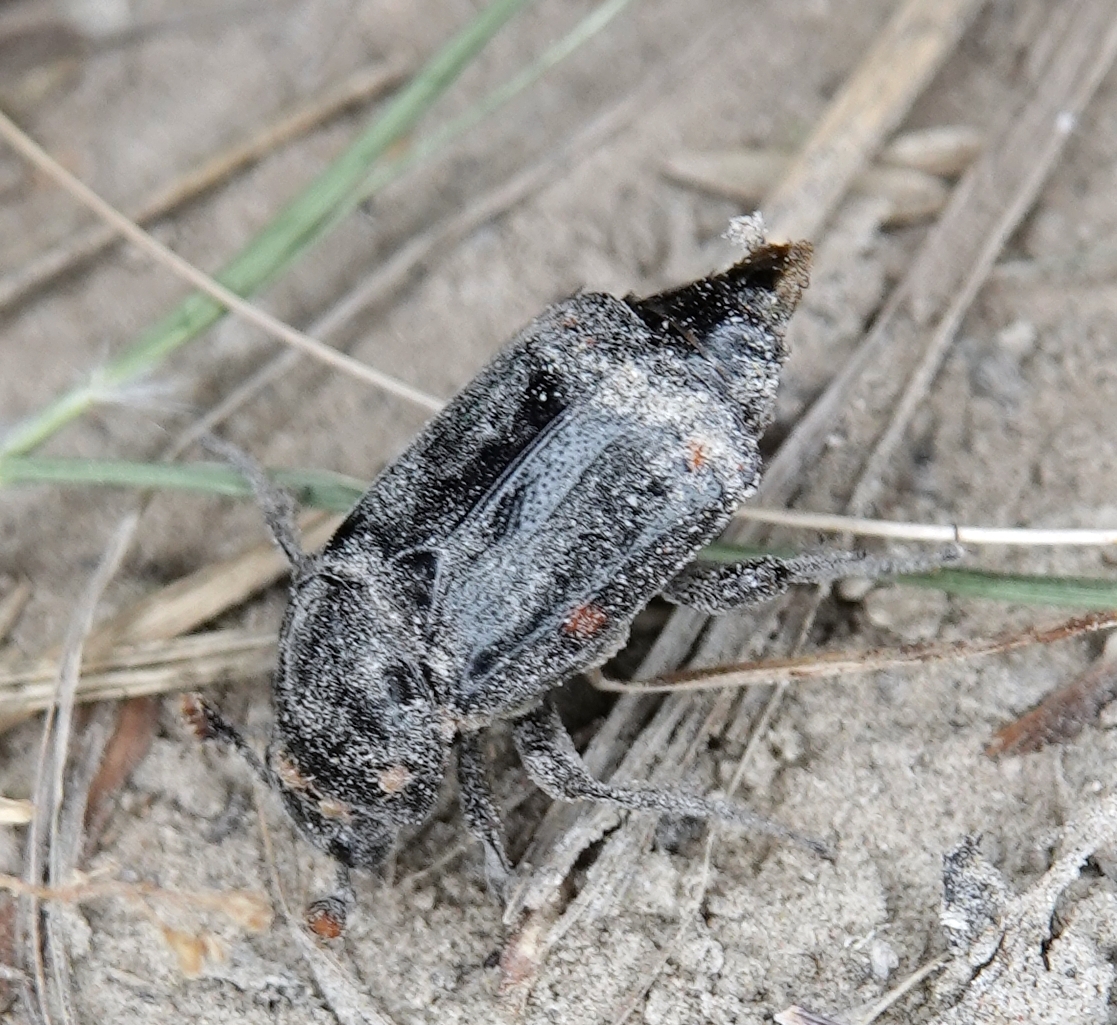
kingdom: Animalia
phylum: Arthropoda
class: Insecta
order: Coleoptera
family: Staphylinidae
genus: Nicrophorus
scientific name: Nicrophorus pustulatus
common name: Pustulated carrion beetle
